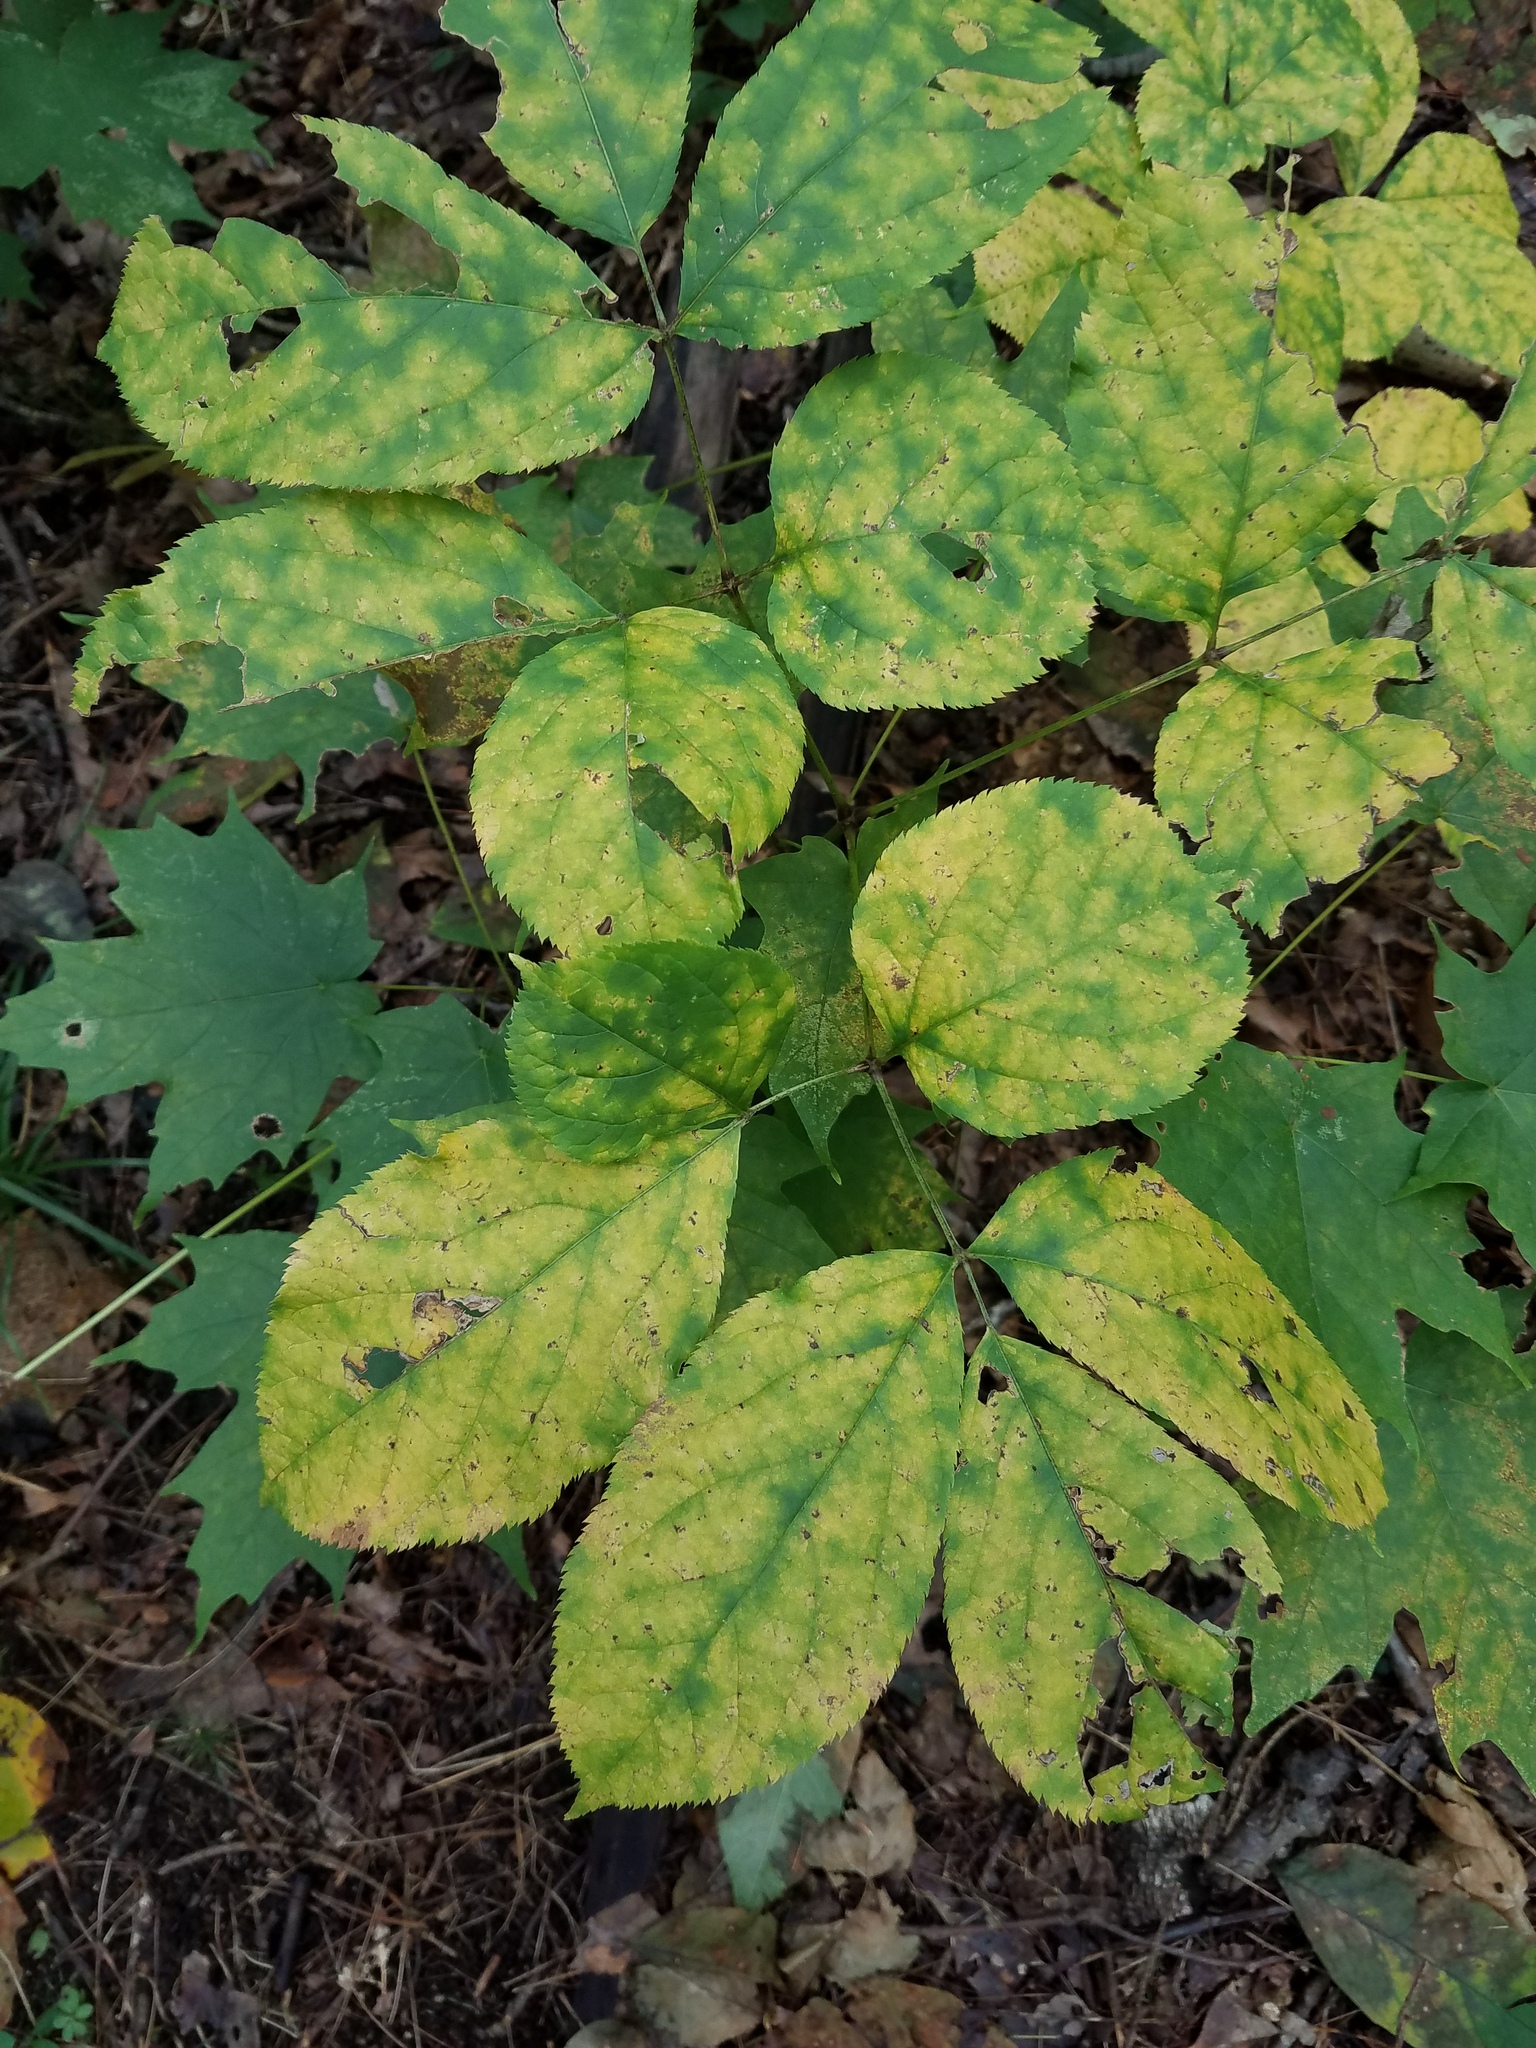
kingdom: Plantae
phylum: Tracheophyta
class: Magnoliopsida
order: Apiales
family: Araliaceae
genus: Aralia
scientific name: Aralia nudicaulis
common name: Wild sarsaparilla
